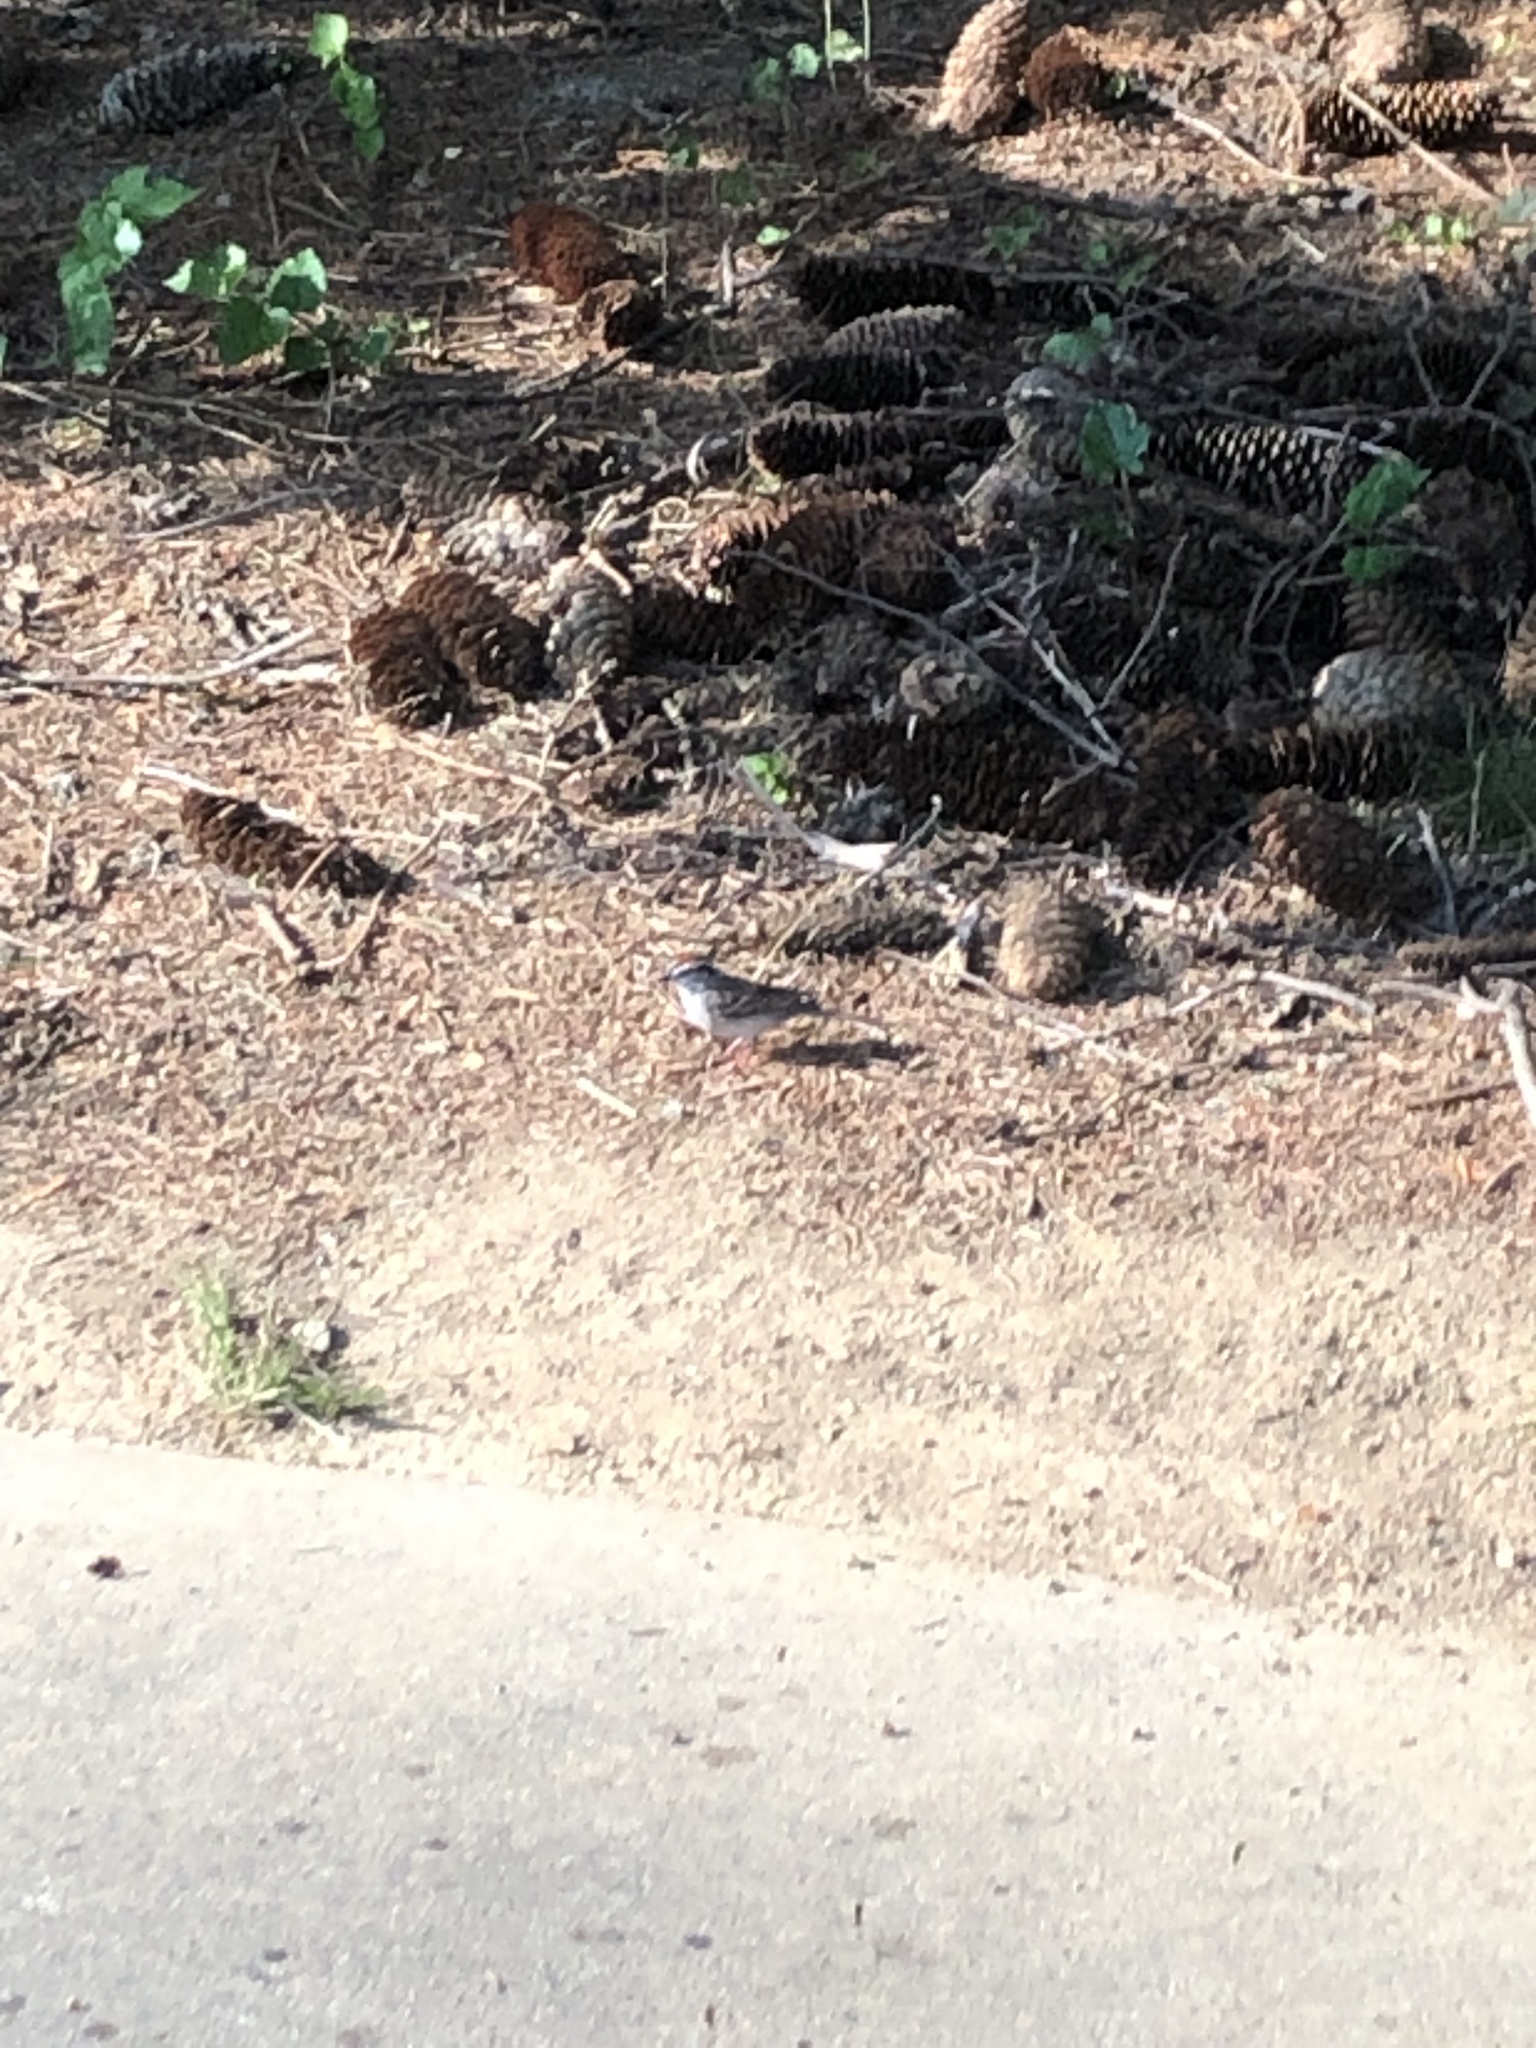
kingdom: Animalia
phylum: Chordata
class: Aves
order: Passeriformes
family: Passerellidae
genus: Spizella
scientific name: Spizella passerina
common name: Chipping sparrow
